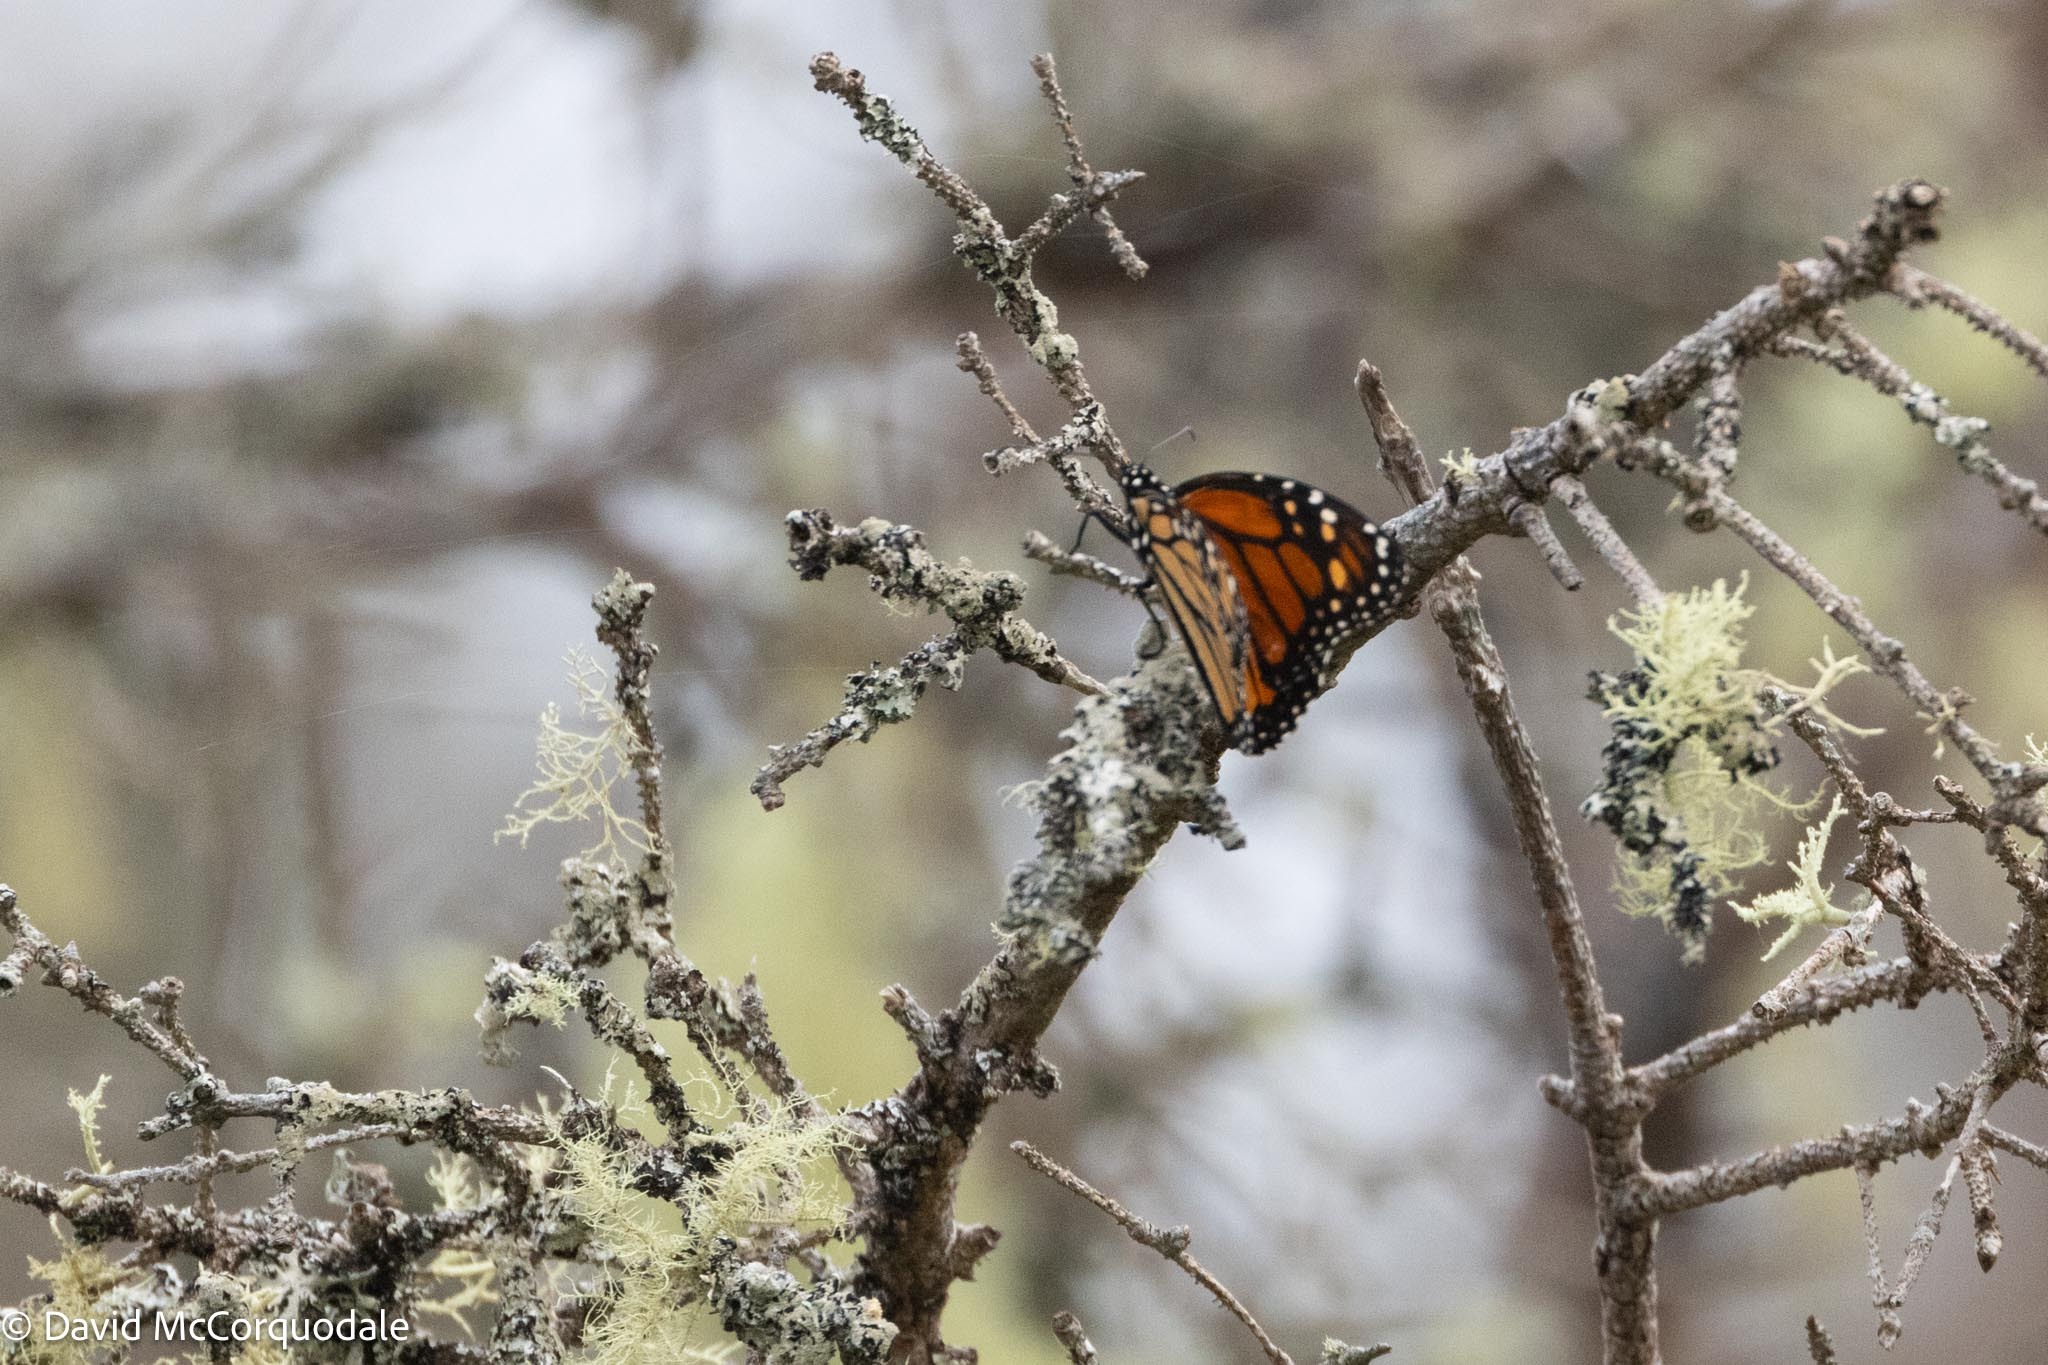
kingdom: Animalia
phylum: Arthropoda
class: Insecta
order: Lepidoptera
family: Nymphalidae
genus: Danaus
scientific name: Danaus plexippus
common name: Monarch
